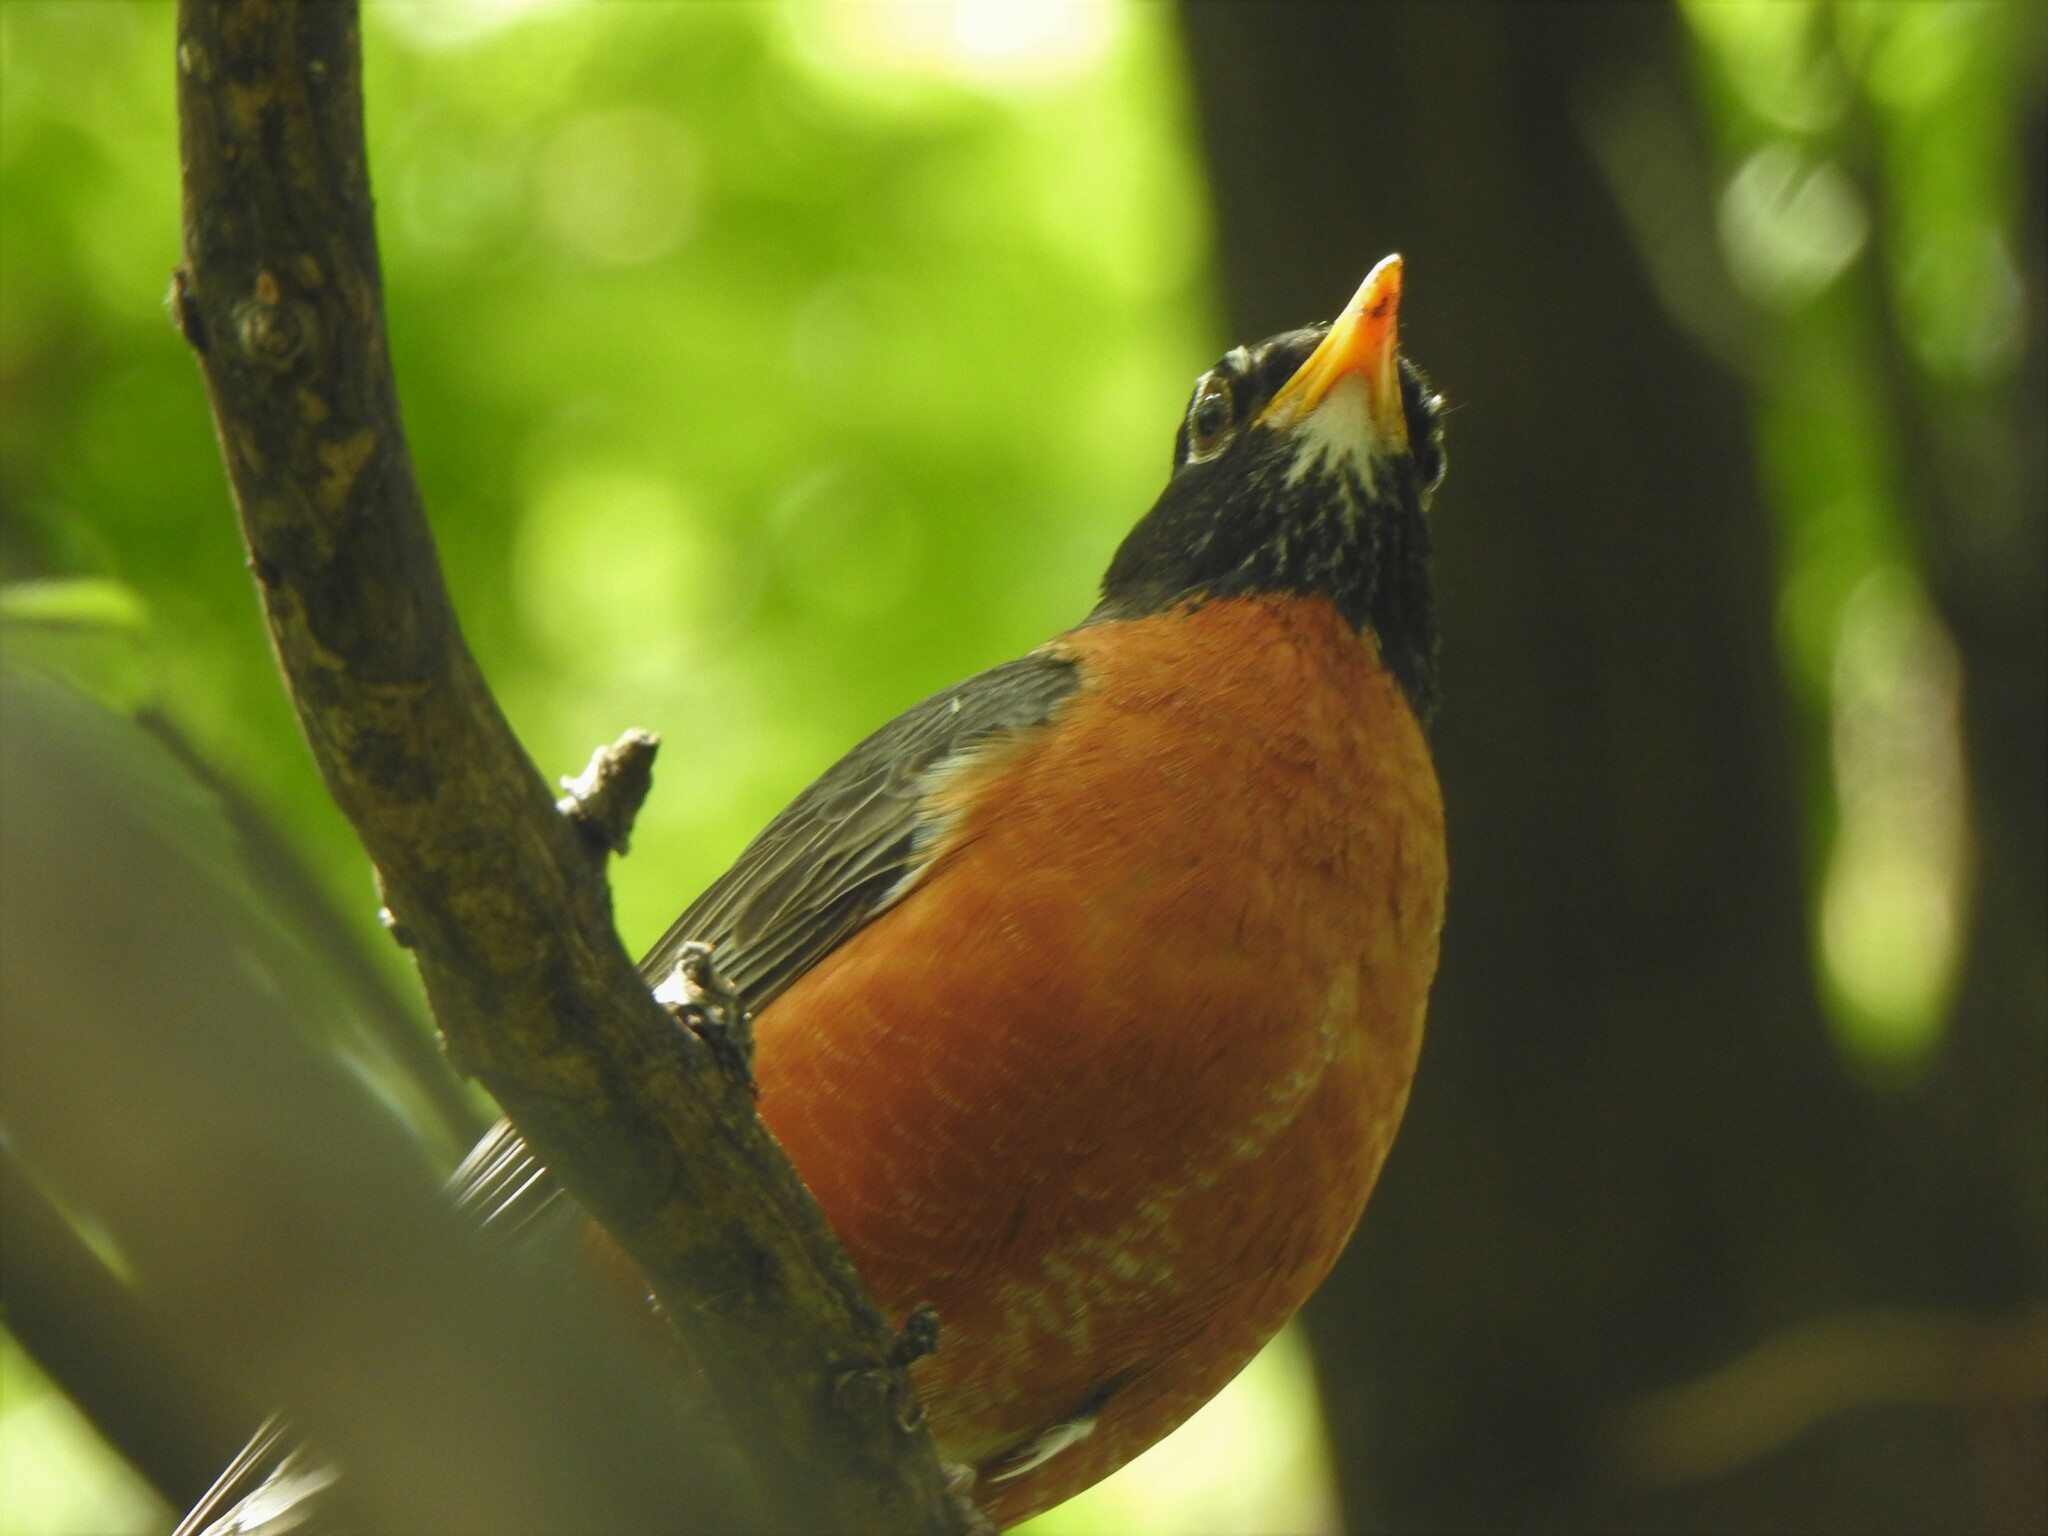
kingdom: Animalia
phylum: Chordata
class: Aves
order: Passeriformes
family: Turdidae
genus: Turdus
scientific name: Turdus migratorius
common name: American robin
